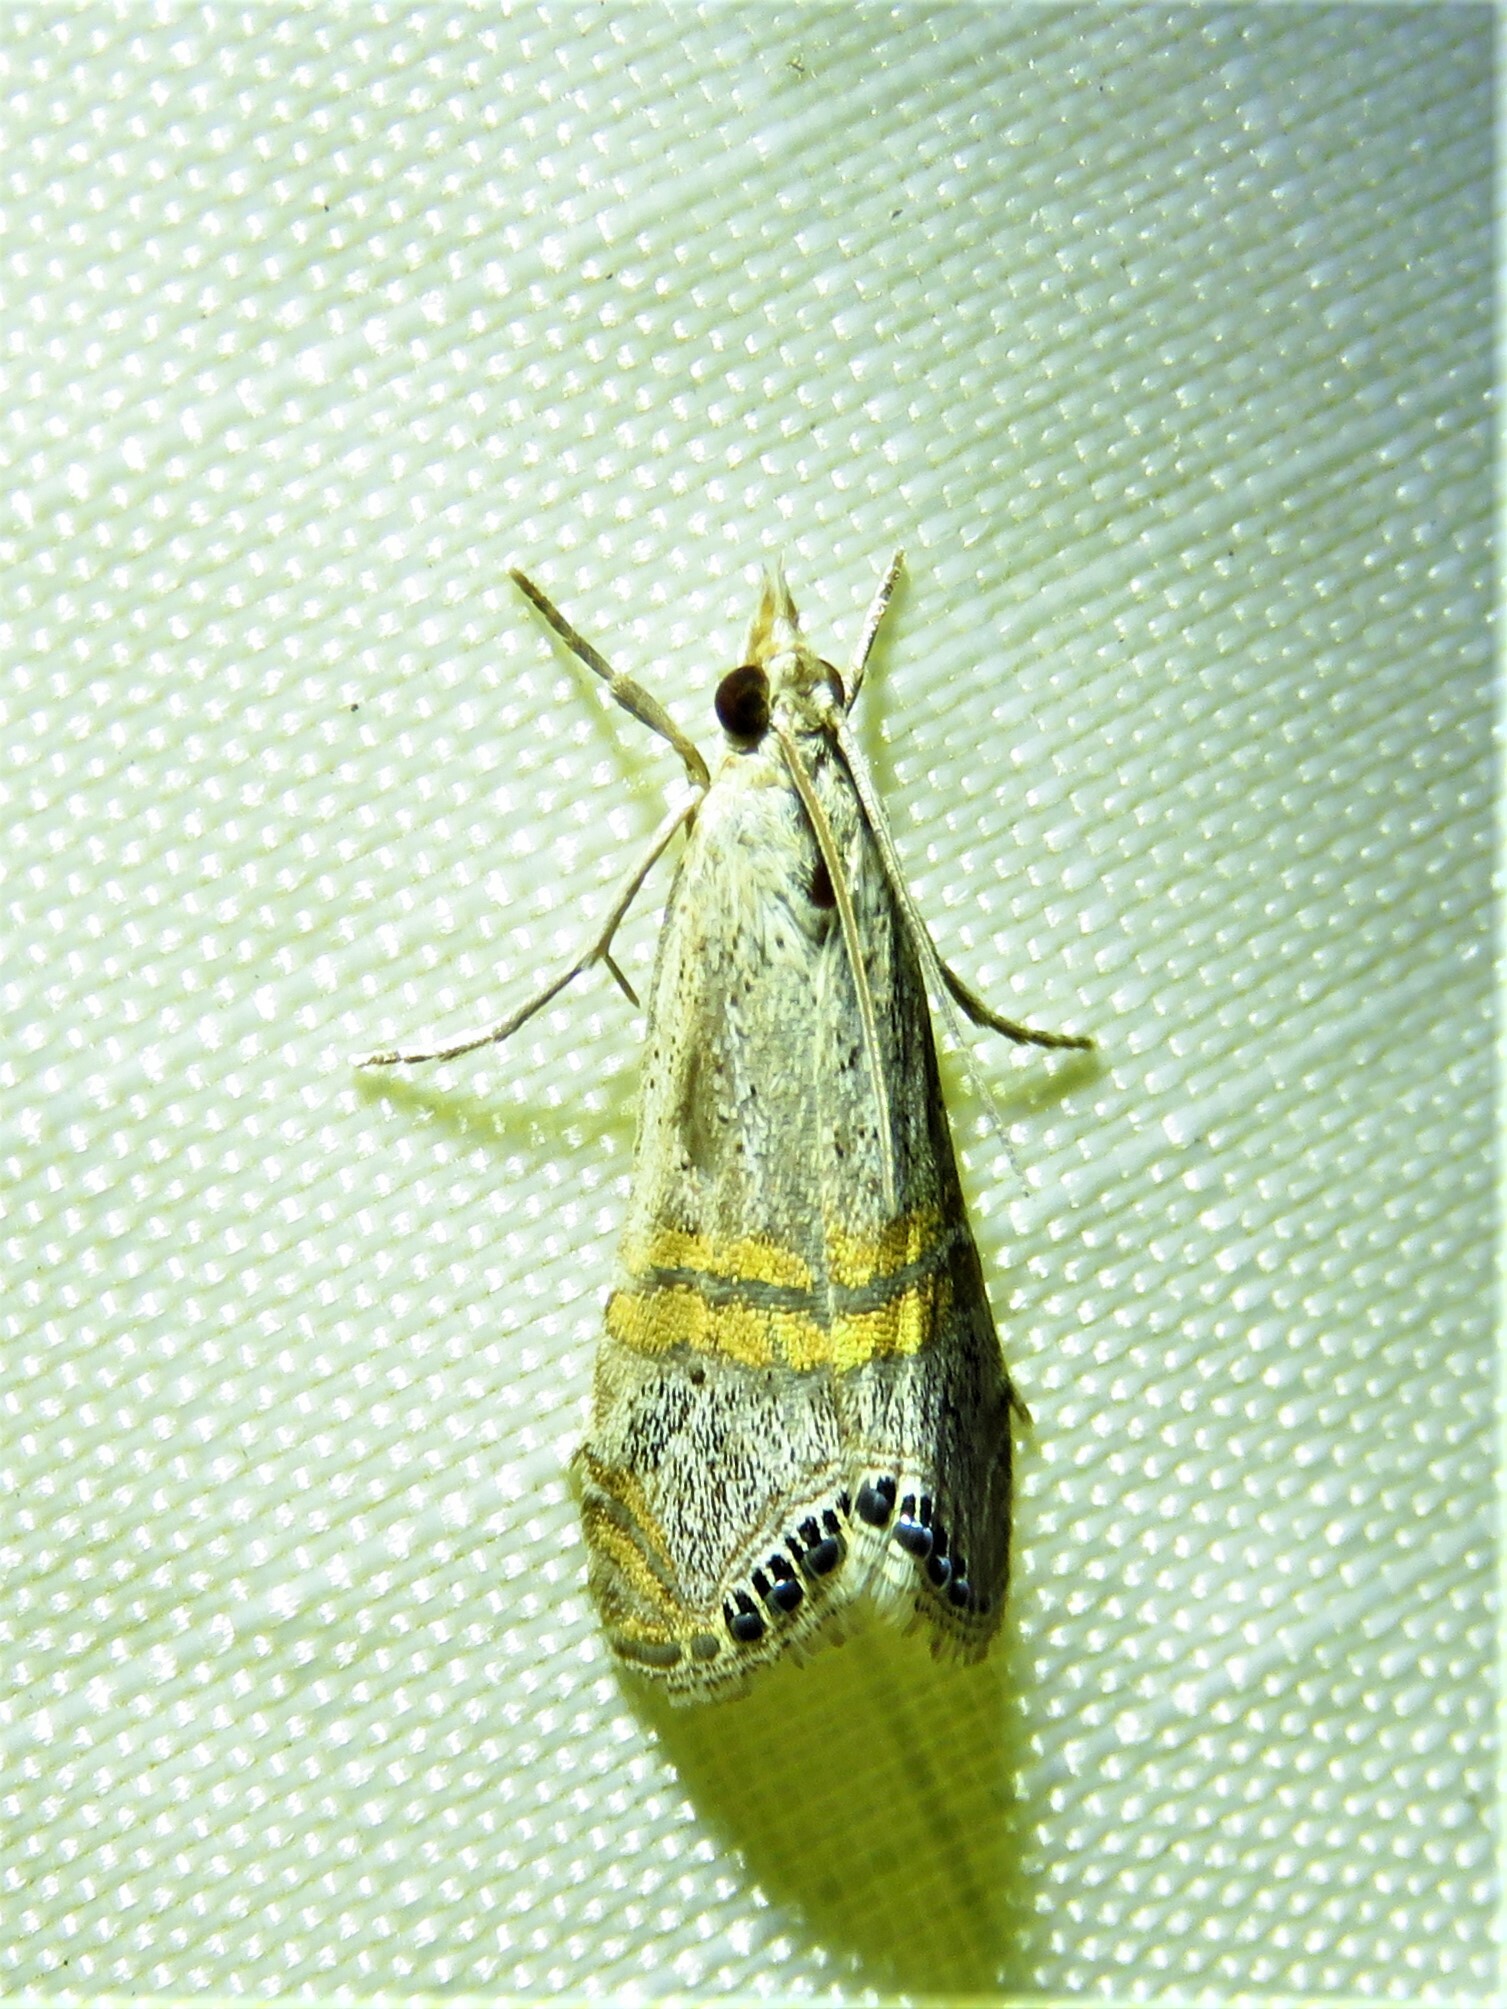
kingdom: Animalia
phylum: Arthropoda
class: Insecta
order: Lepidoptera
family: Crambidae
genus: Euchromius
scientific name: Euchromius ocellea
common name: Necklace veneer moth
